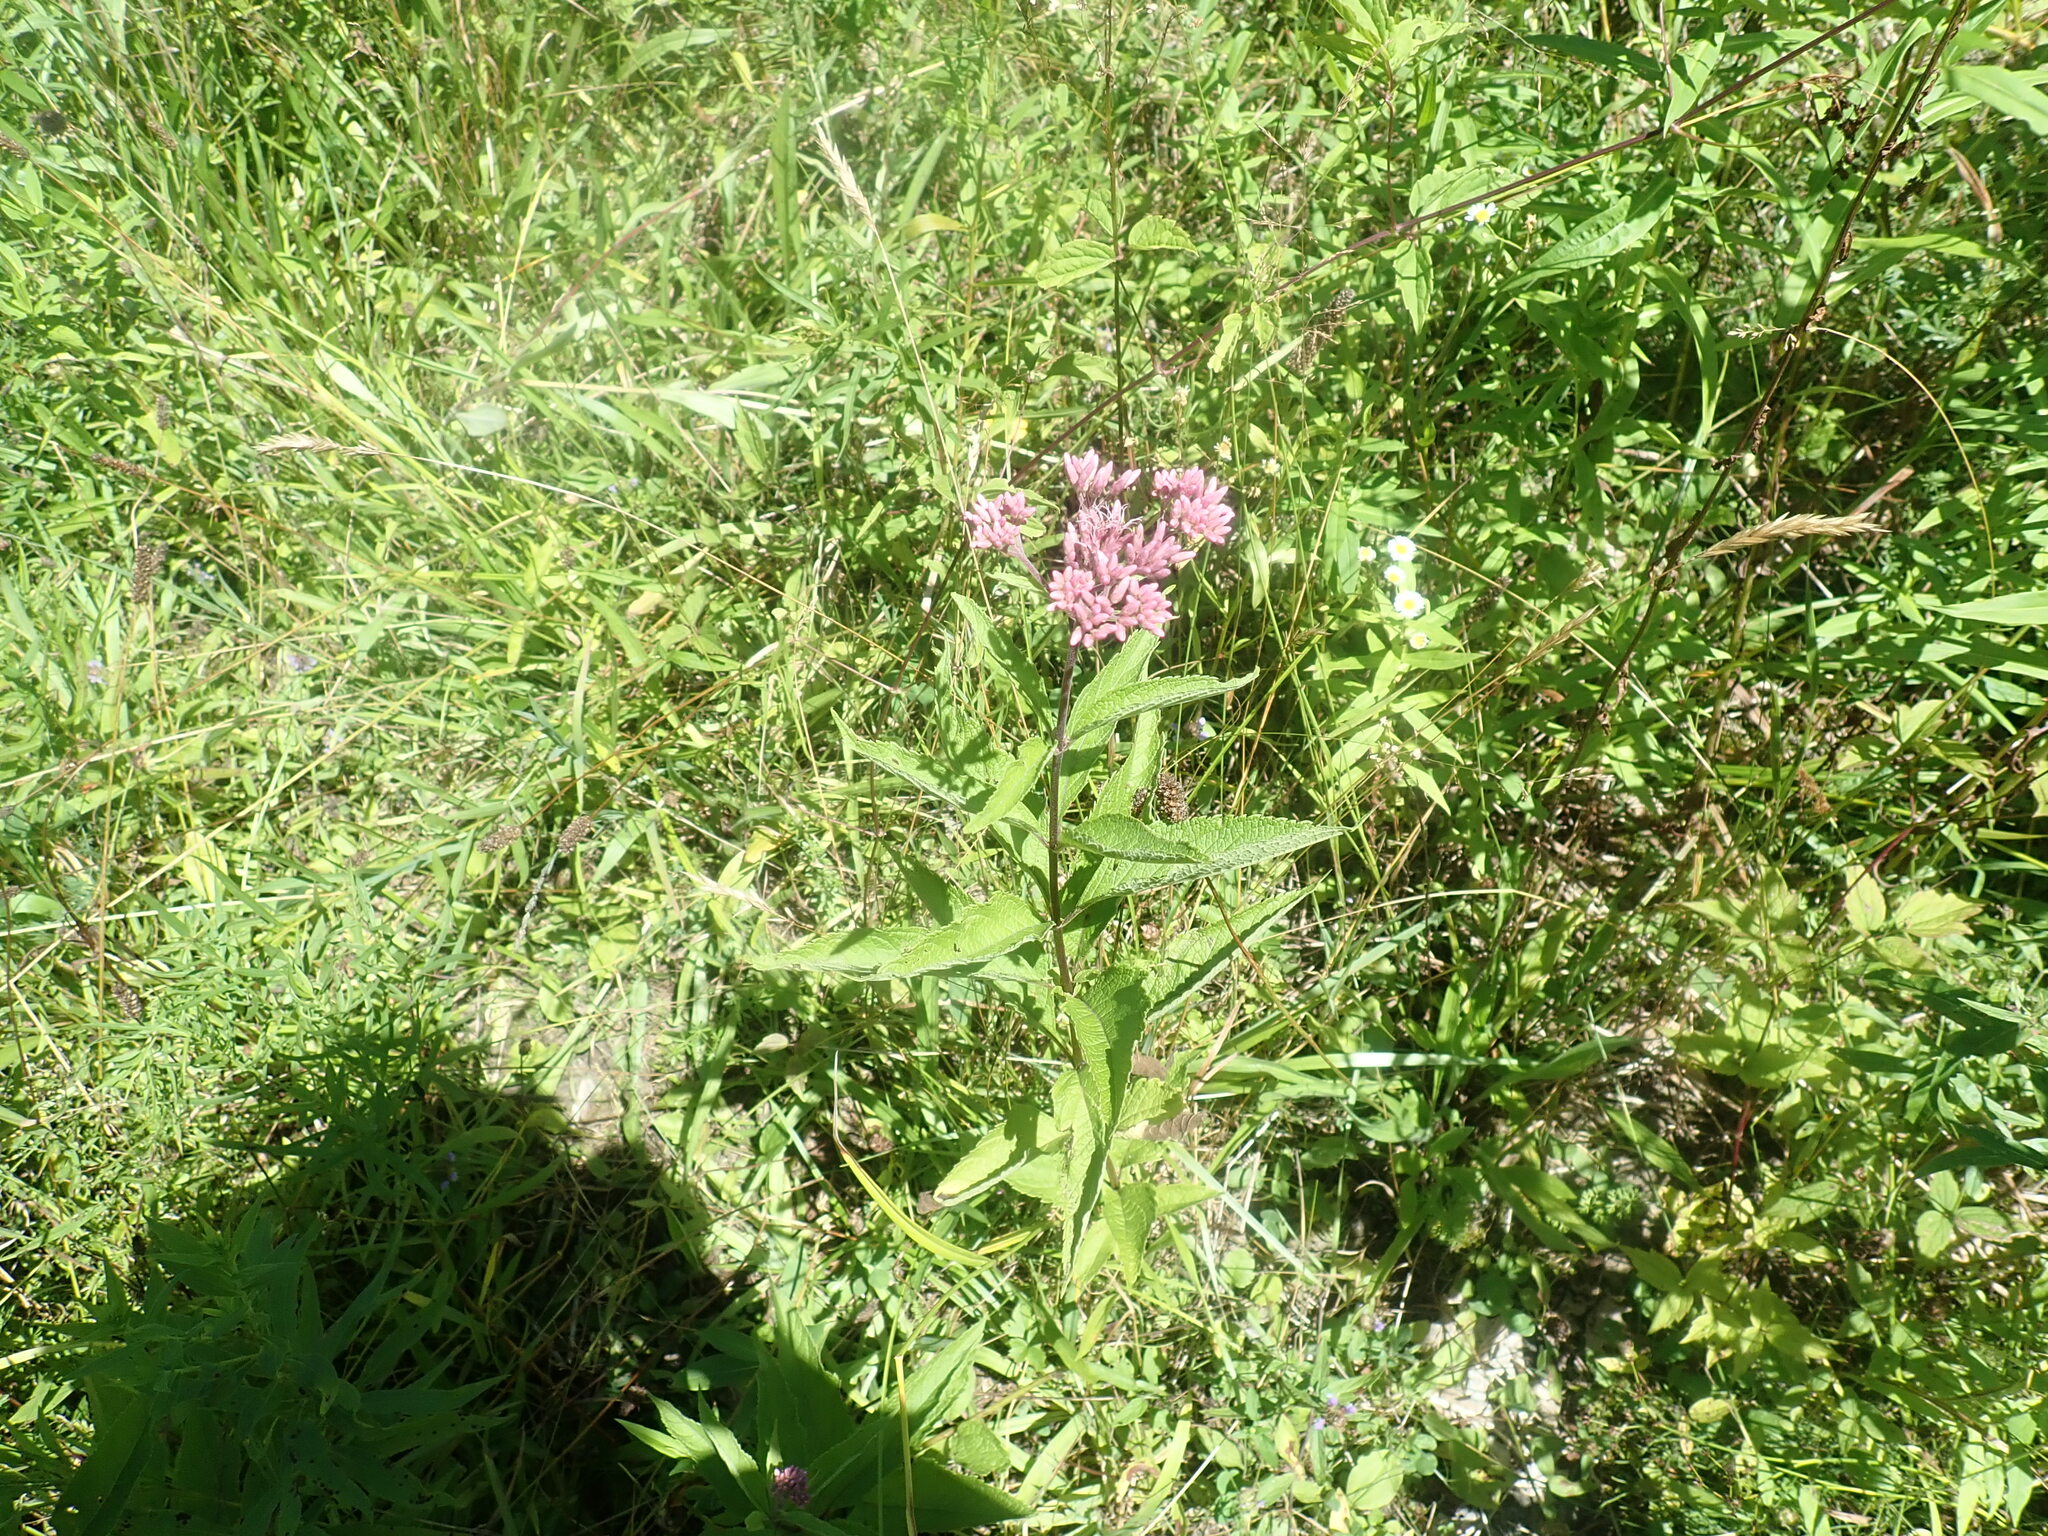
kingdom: Plantae
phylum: Tracheophyta
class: Magnoliopsida
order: Asterales
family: Asteraceae
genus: Eutrochium
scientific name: Eutrochium
